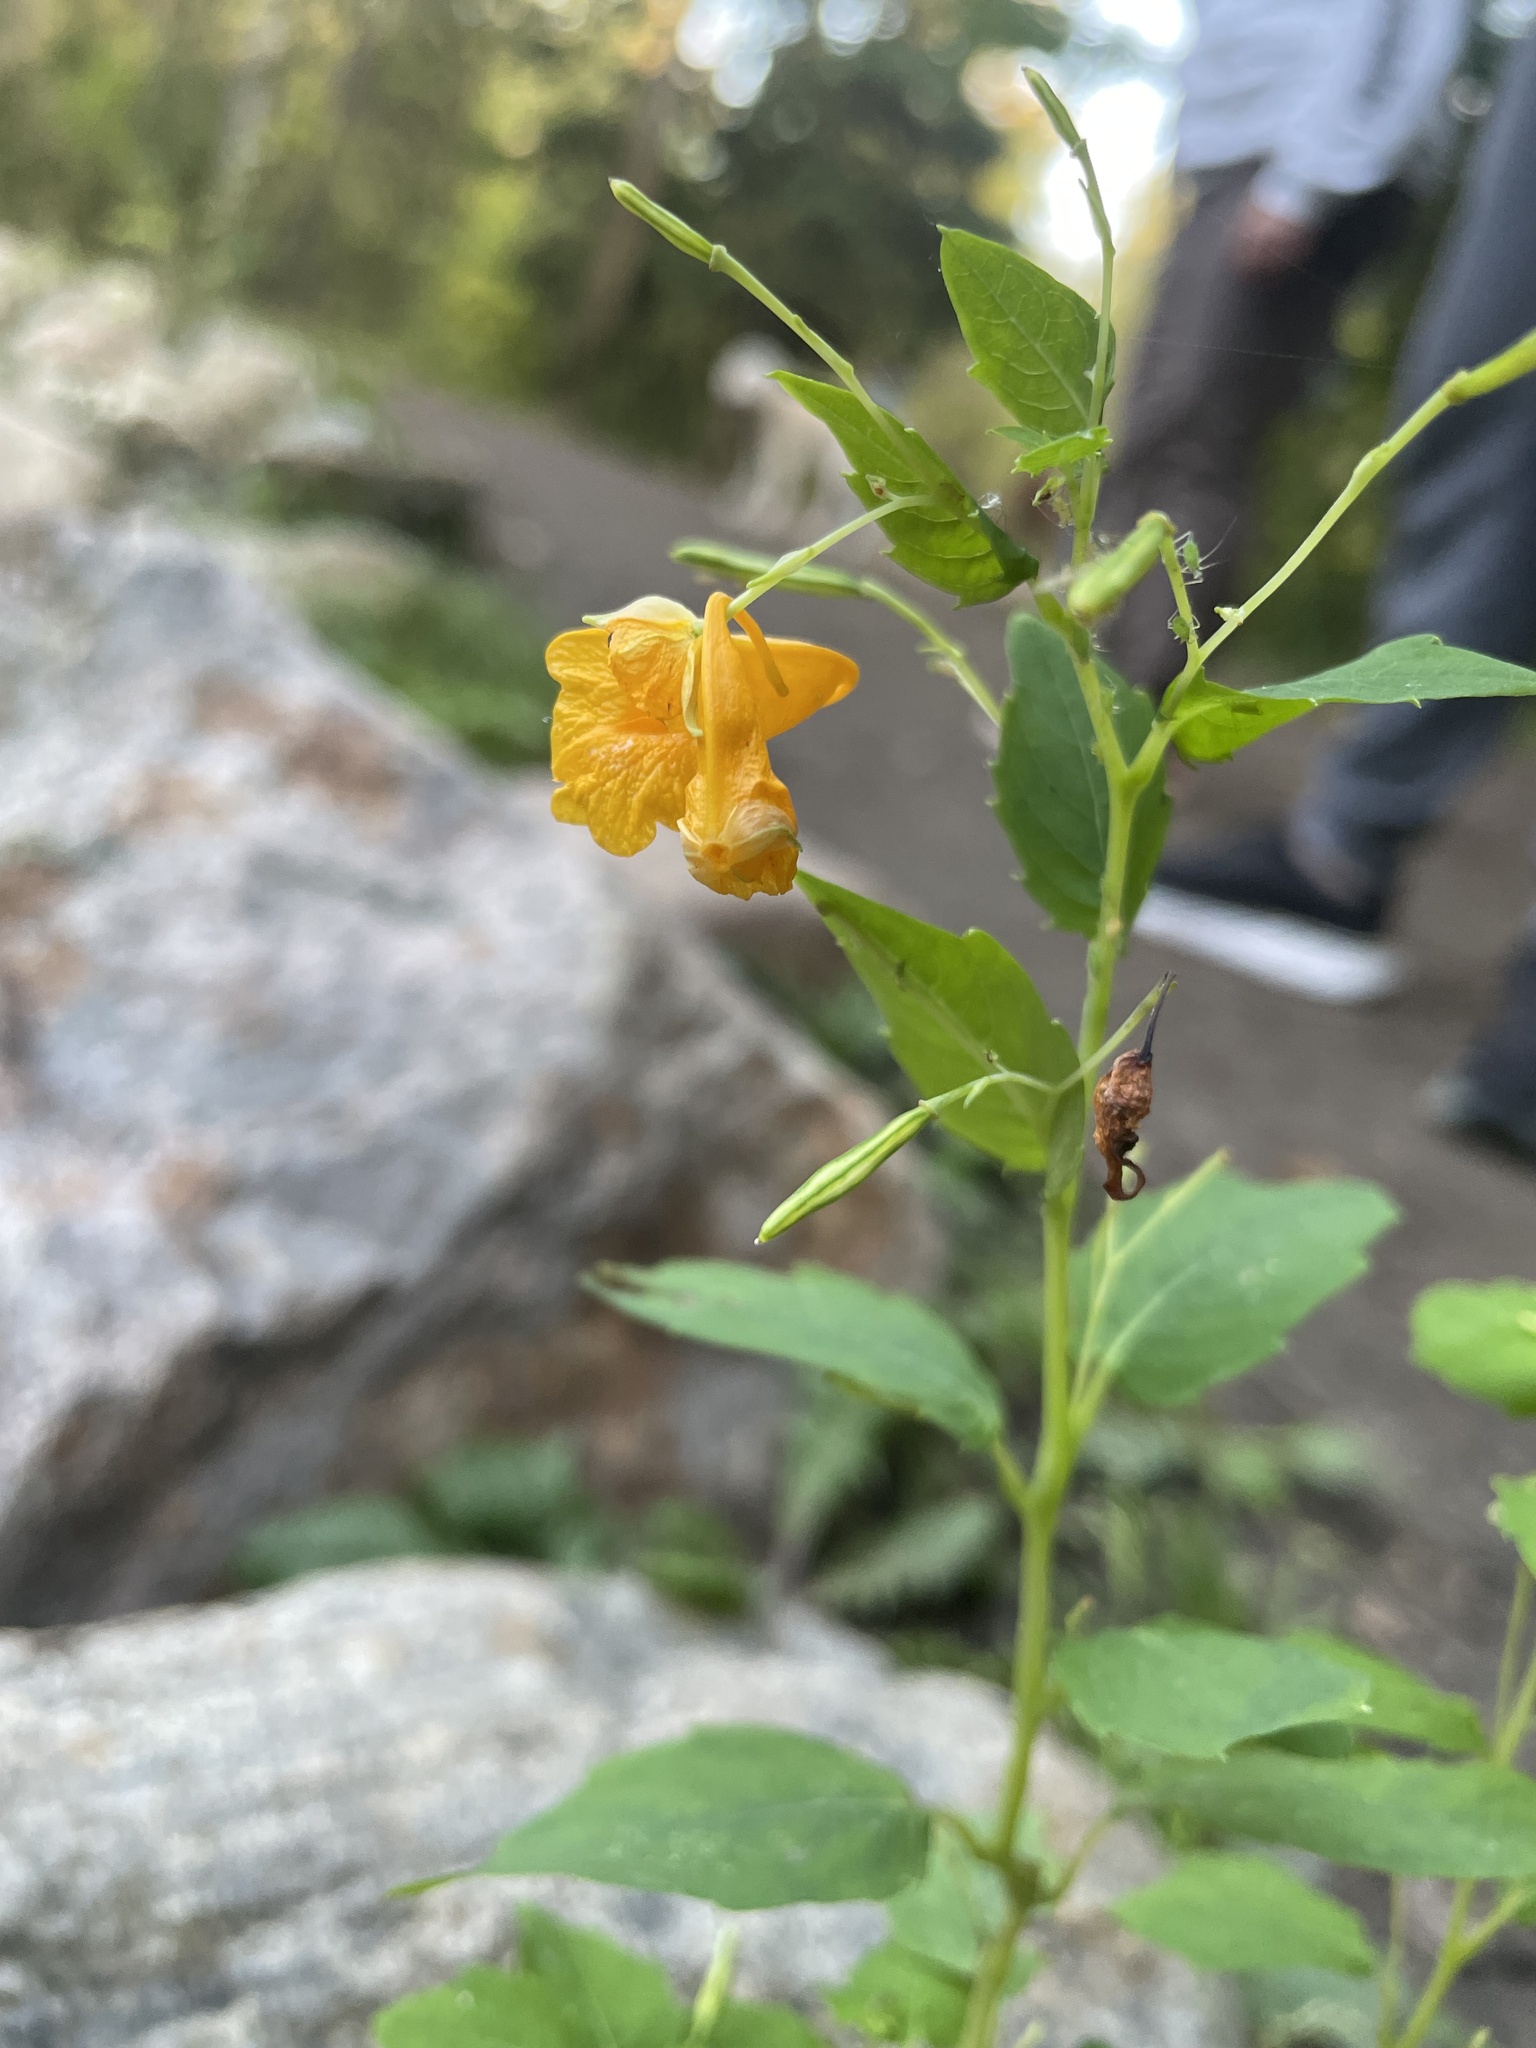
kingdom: Plantae
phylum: Tracheophyta
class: Magnoliopsida
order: Ericales
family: Balsaminaceae
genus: Impatiens
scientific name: Impatiens capensis
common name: Orange balsam
